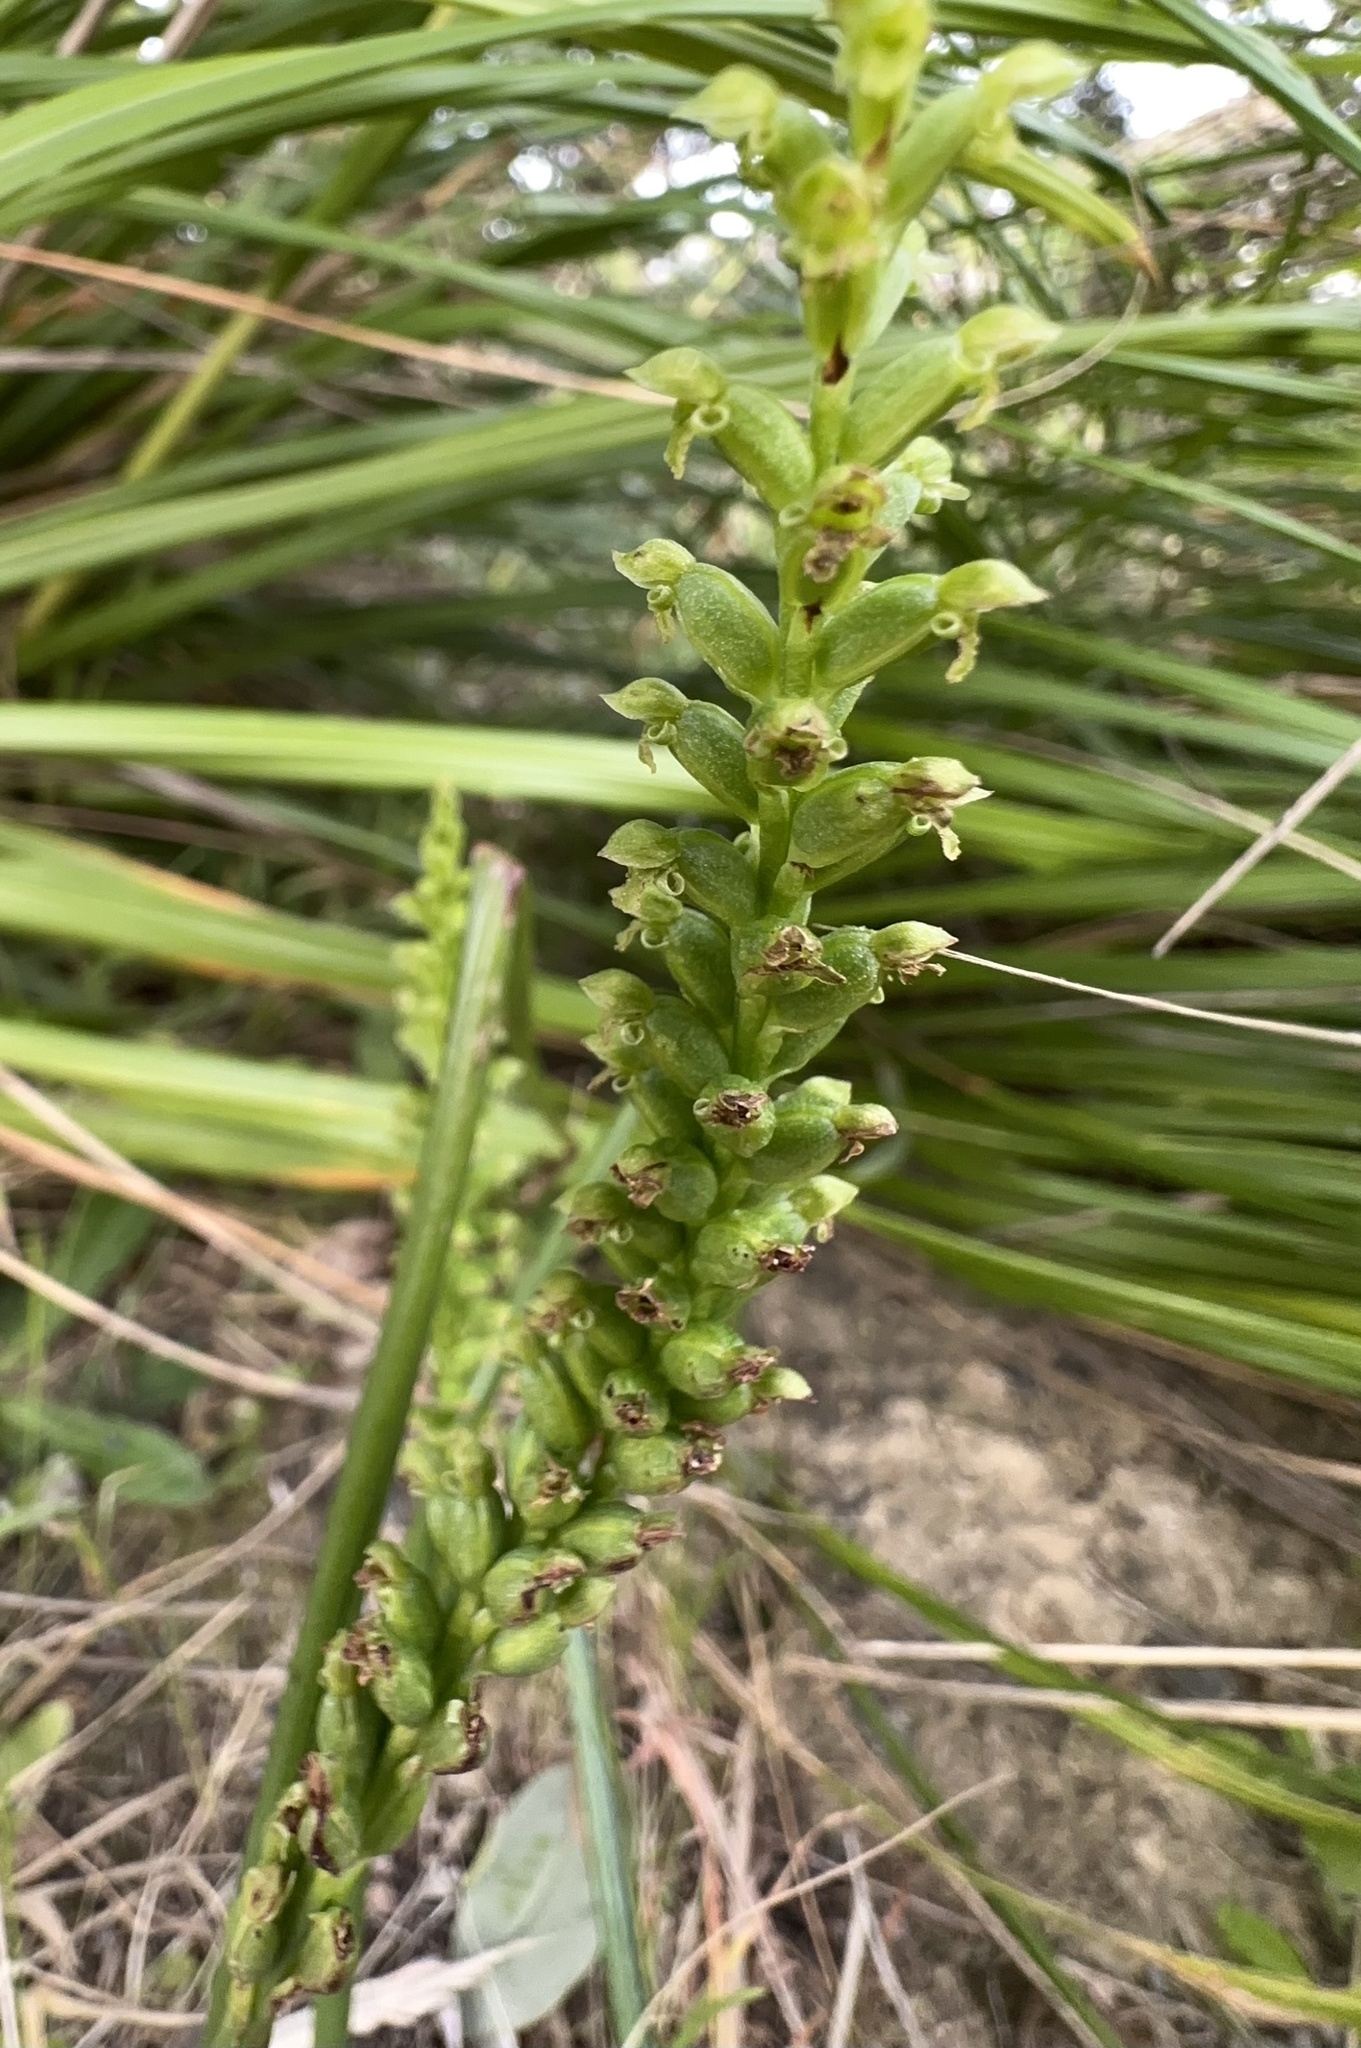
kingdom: Plantae
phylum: Tracheophyta
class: Liliopsida
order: Asparagales
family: Orchidaceae
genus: Microtis
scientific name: Microtis unifolia
